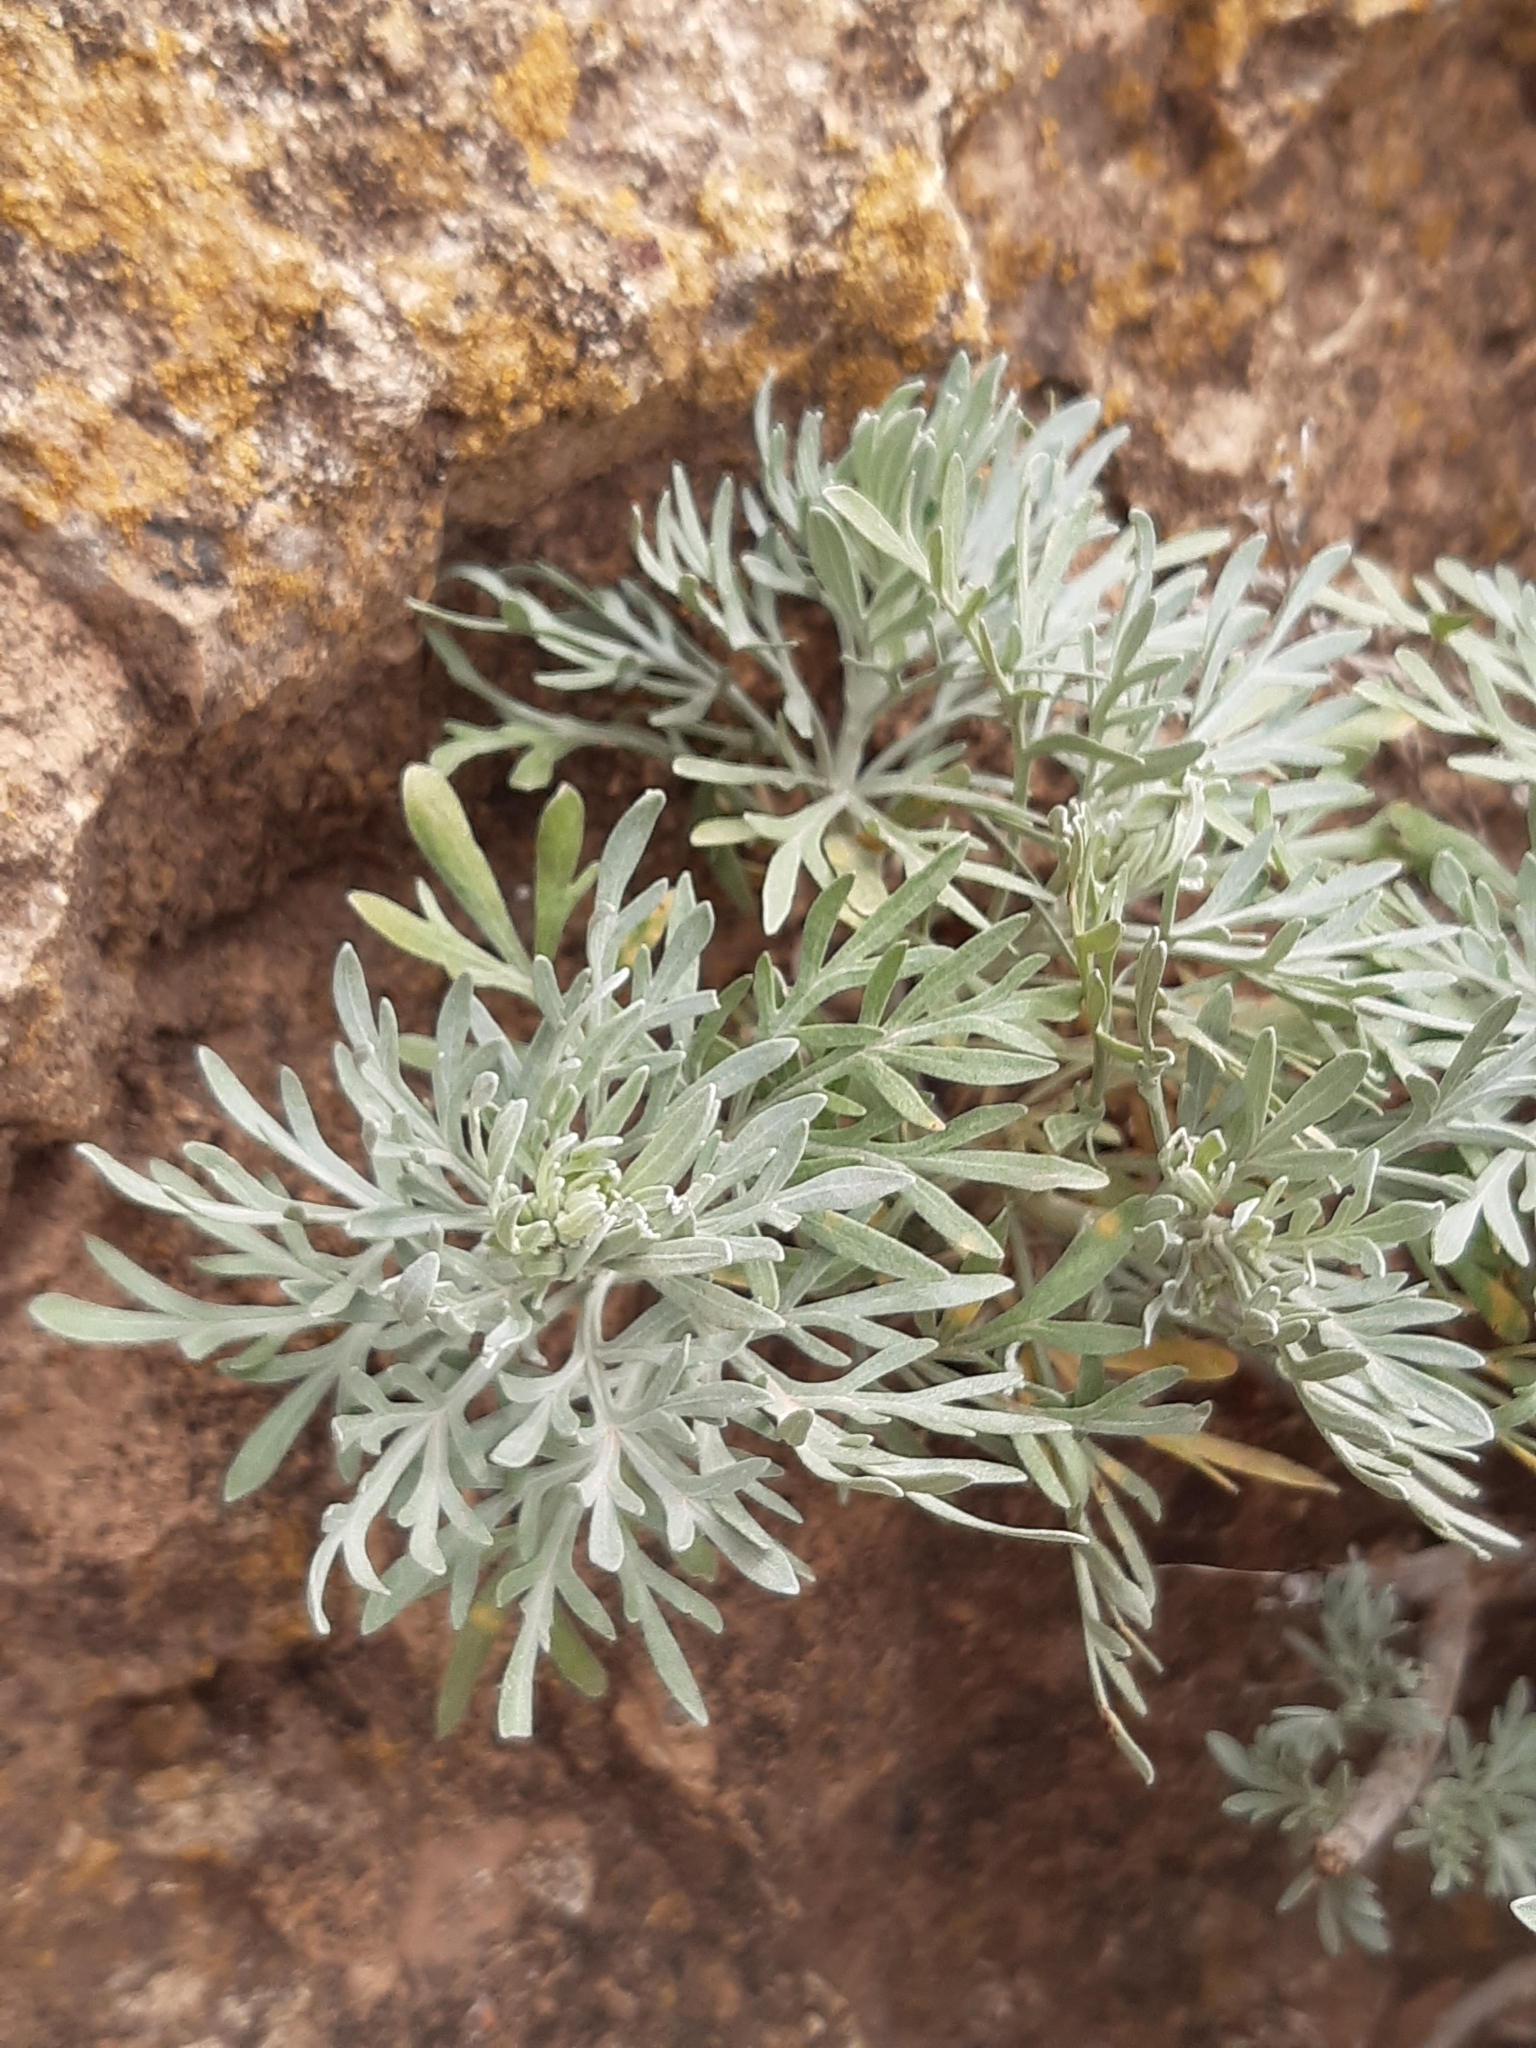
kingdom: Plantae
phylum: Tracheophyta
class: Magnoliopsida
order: Asterales
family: Asteraceae
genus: Artemisia
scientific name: Artemisia thuscula
